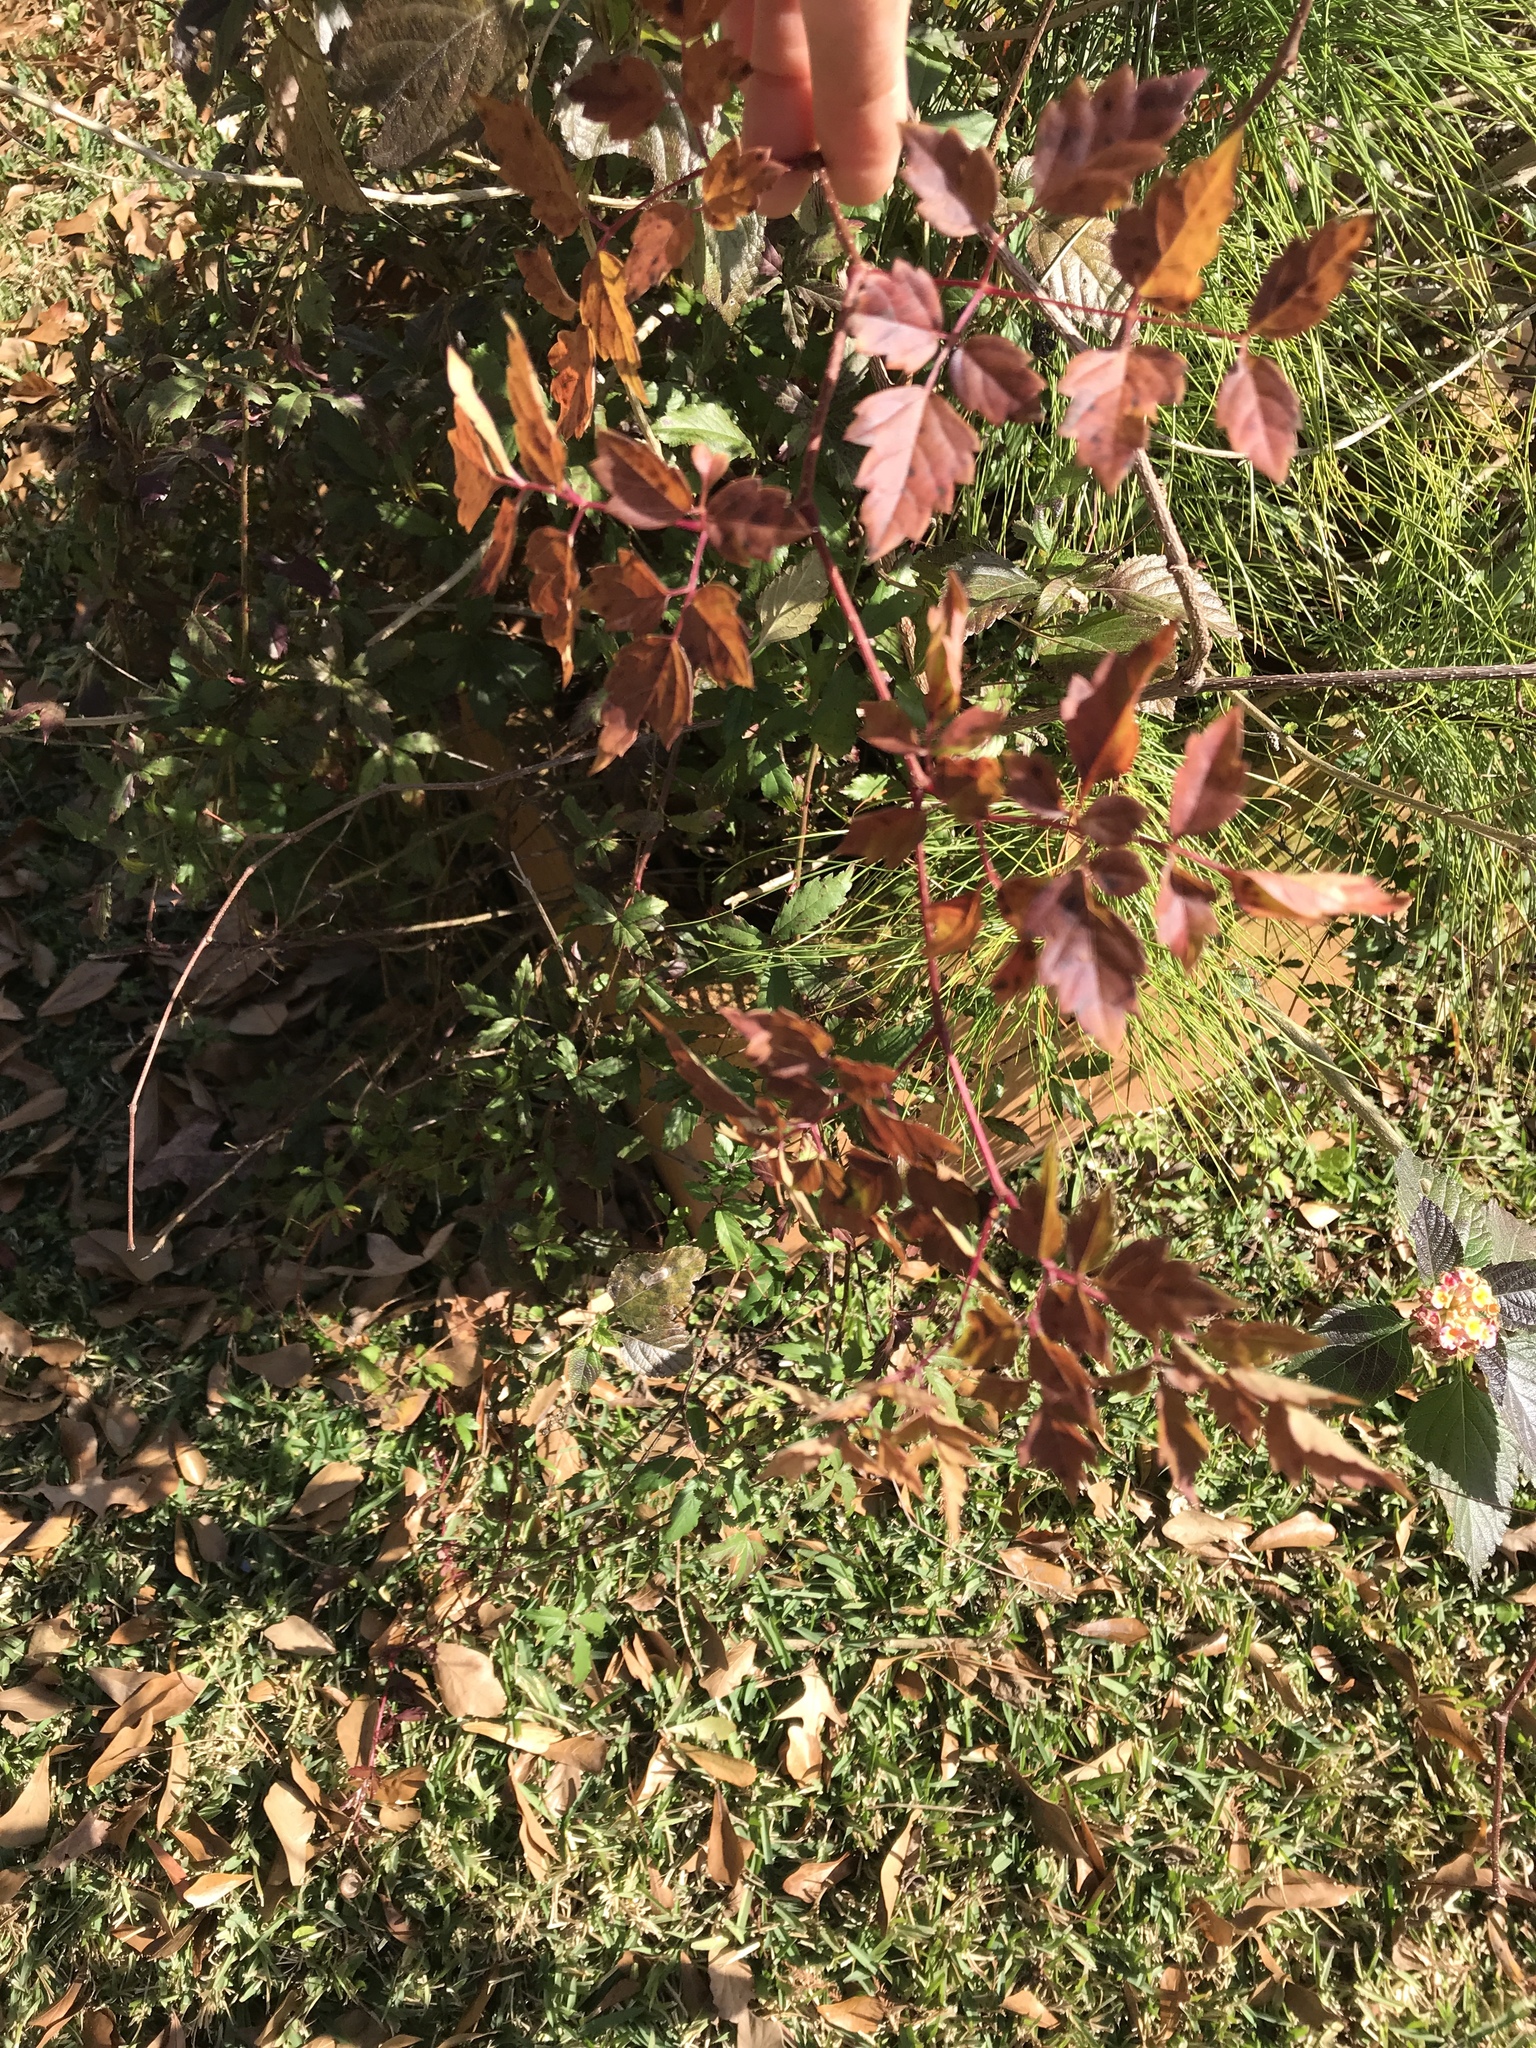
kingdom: Plantae
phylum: Tracheophyta
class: Magnoliopsida
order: Vitales
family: Vitaceae
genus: Nekemias
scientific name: Nekemias arborea
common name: Peppervine
